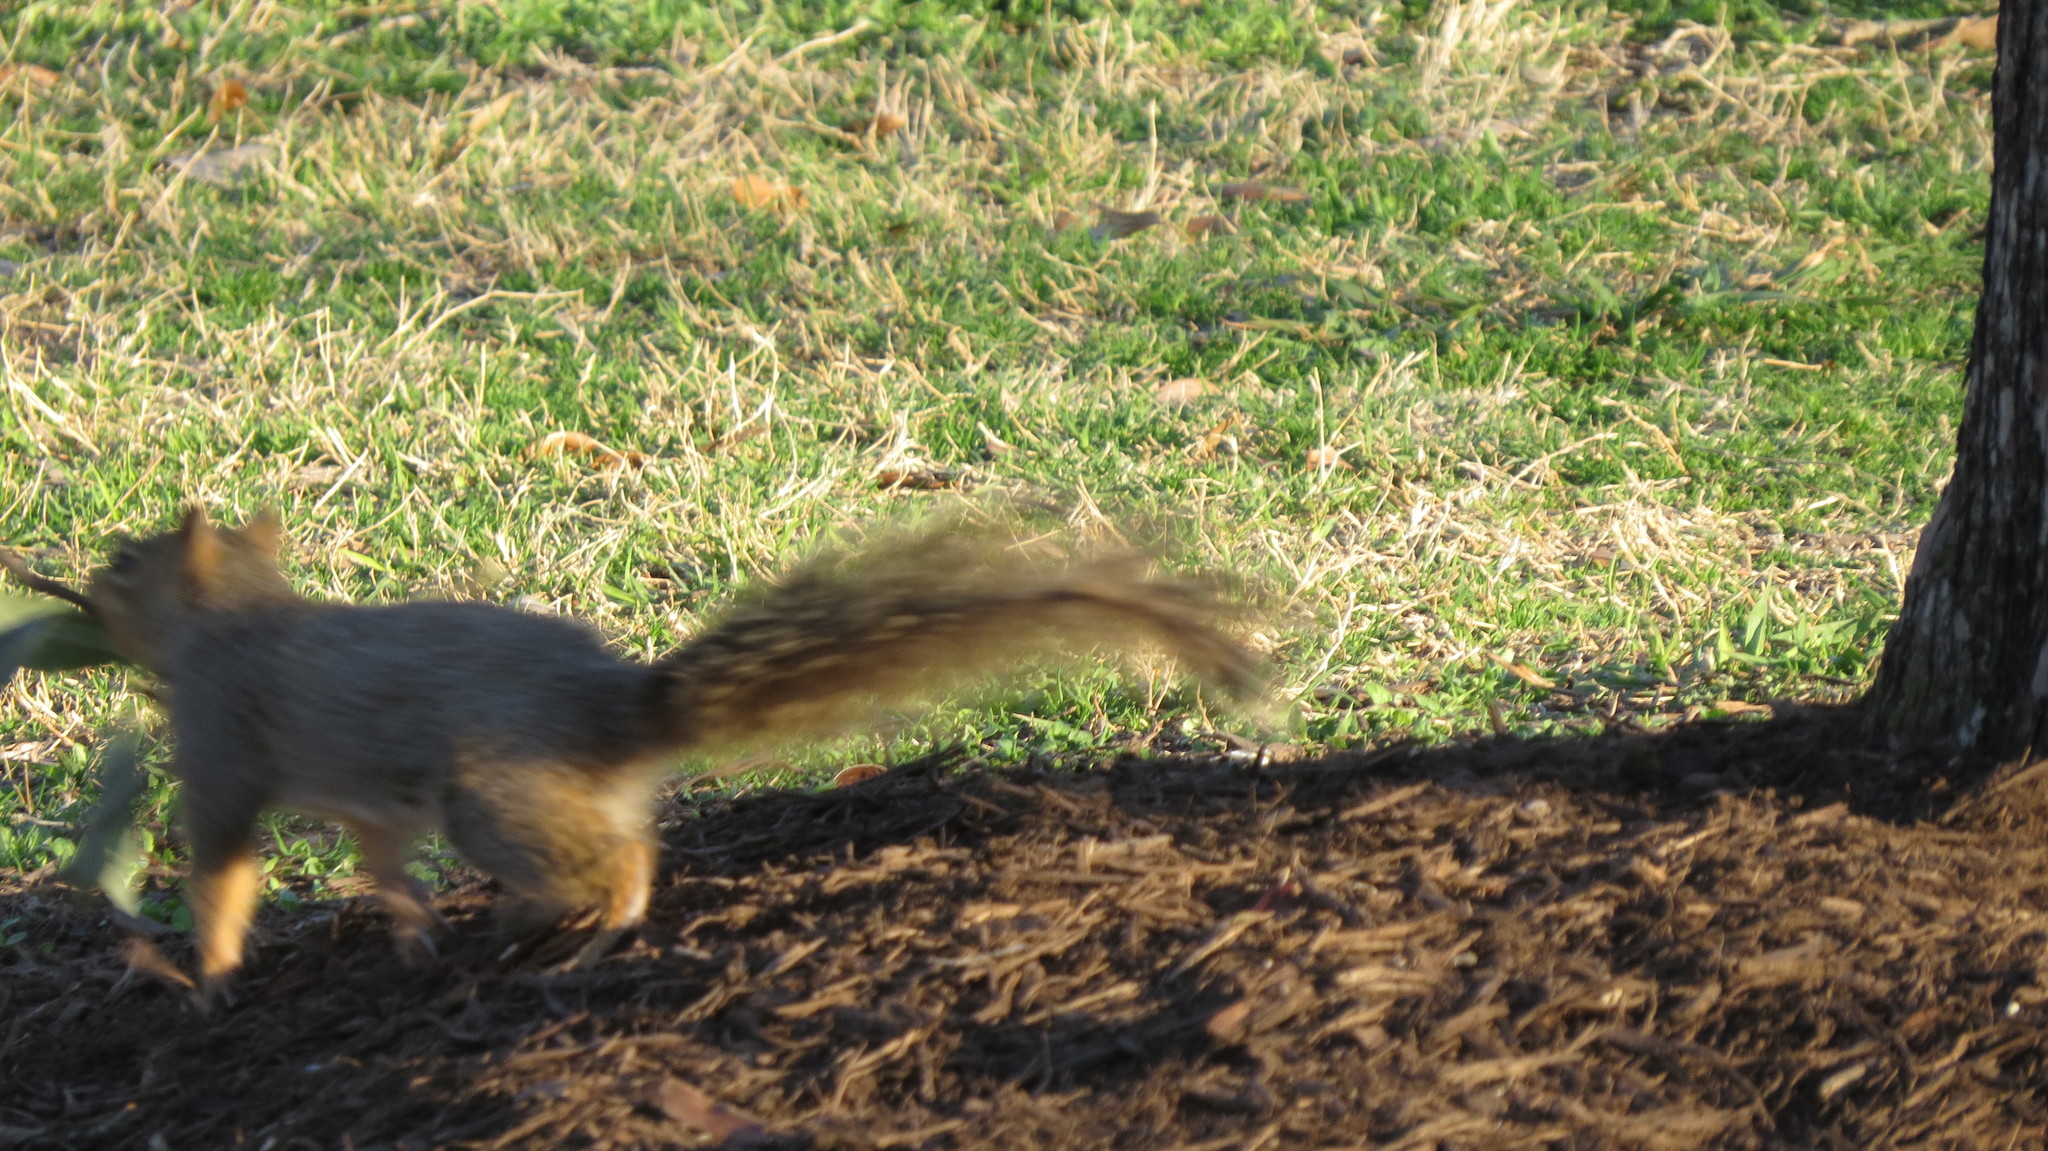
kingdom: Animalia
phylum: Chordata
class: Mammalia
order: Rodentia
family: Sciuridae
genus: Sciurus
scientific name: Sciurus niger
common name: Fox squirrel
